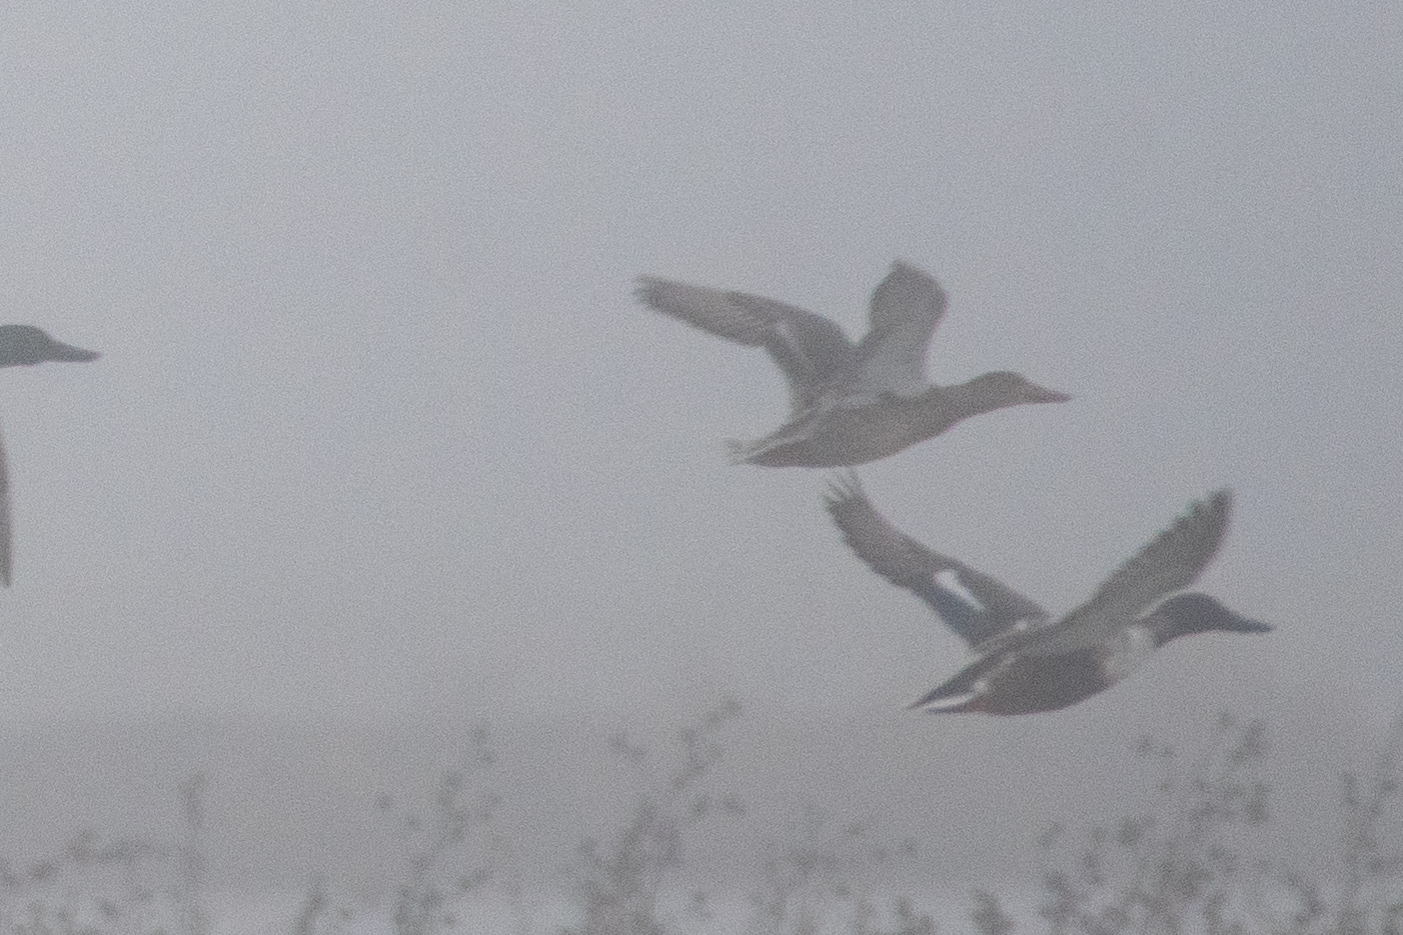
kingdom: Animalia
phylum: Chordata
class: Aves
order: Anseriformes
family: Anatidae
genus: Spatula
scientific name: Spatula clypeata
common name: Northern shoveler
